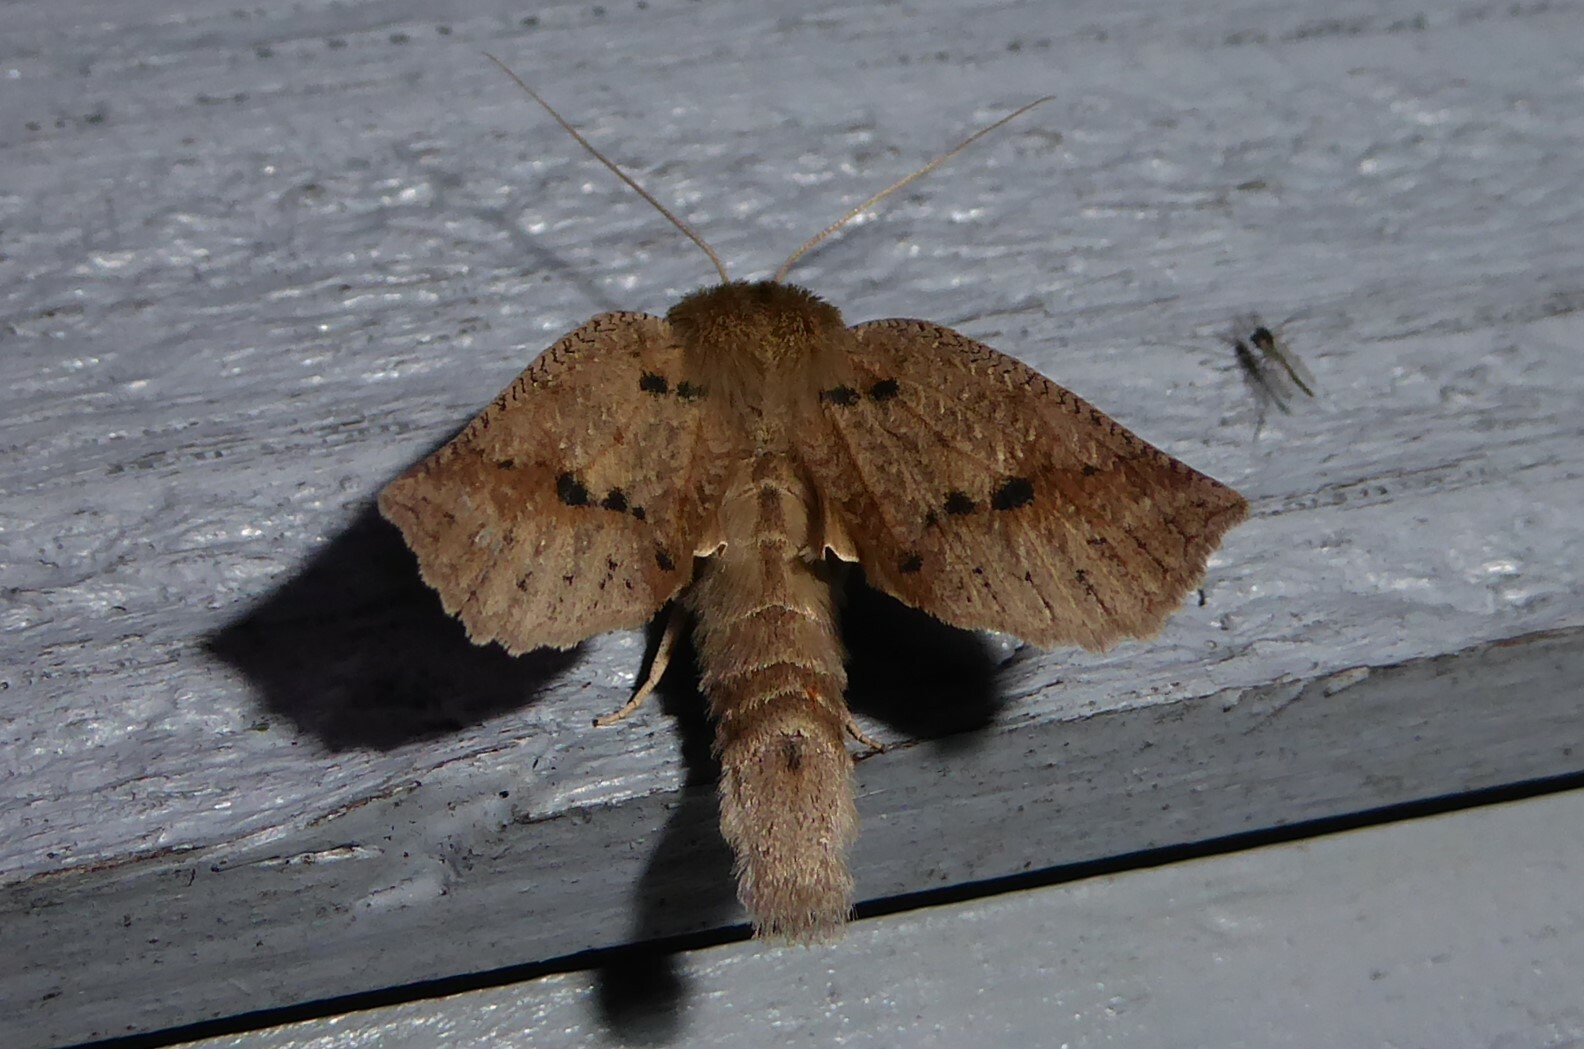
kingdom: Animalia
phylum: Arthropoda
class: Insecta
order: Lepidoptera
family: Geometridae
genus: Declana
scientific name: Declana leptomera
